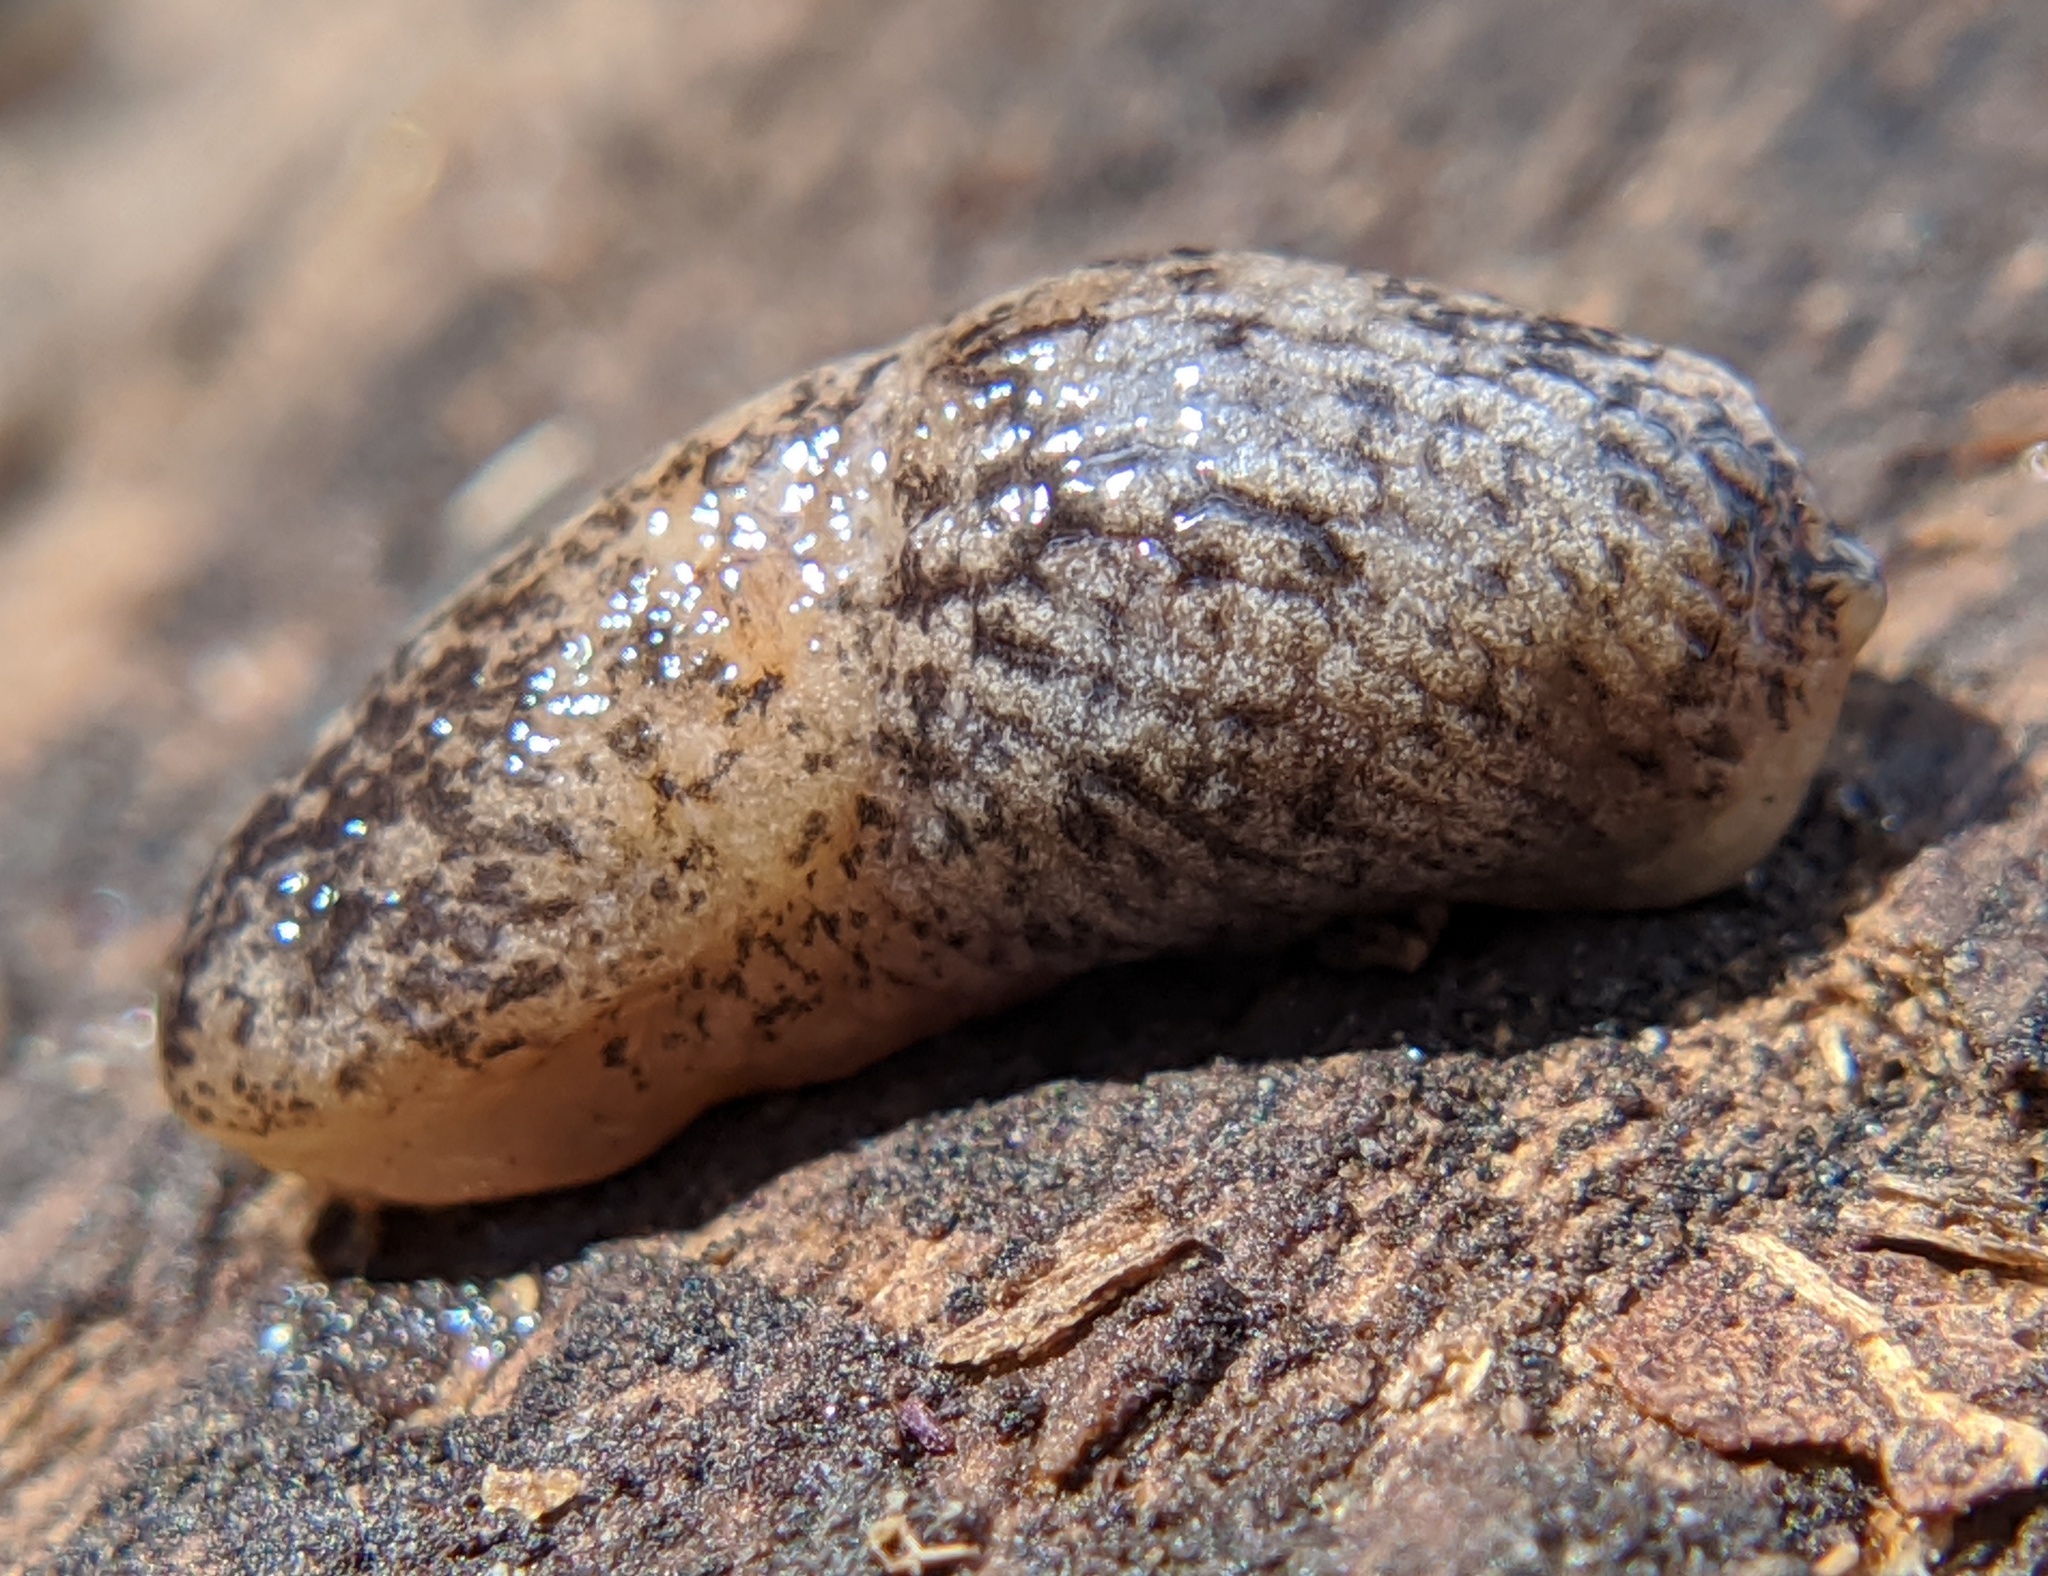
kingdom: Animalia
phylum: Mollusca
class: Gastropoda
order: Stylommatophora
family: Agriolimacidae
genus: Deroceras
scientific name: Deroceras reticulatum
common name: Gray field slug
